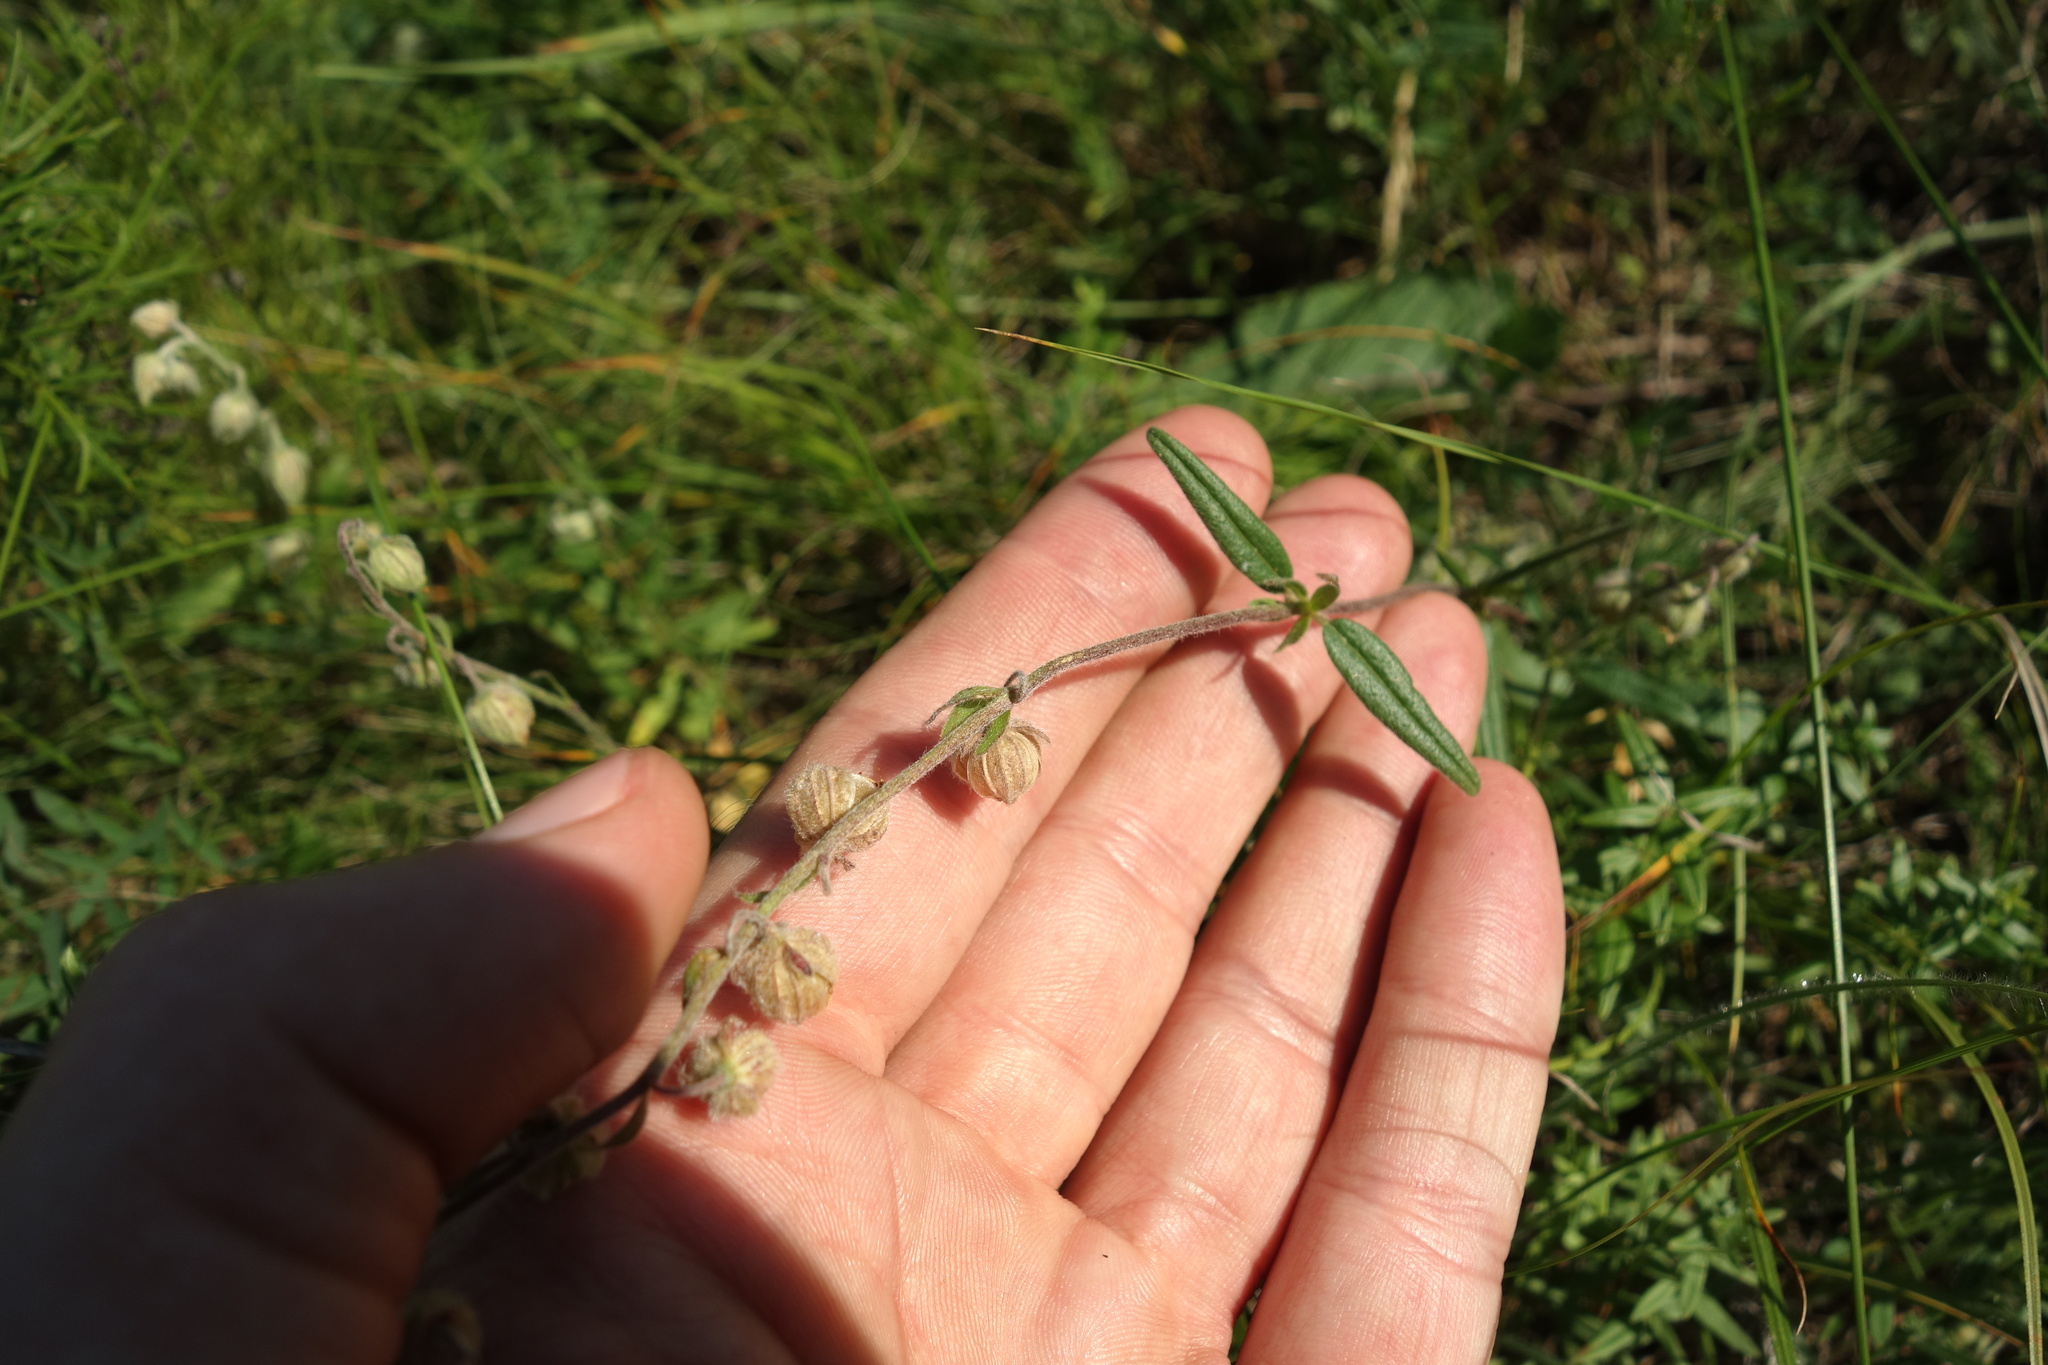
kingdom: Plantae
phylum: Tracheophyta
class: Magnoliopsida
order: Malvales
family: Cistaceae
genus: Helianthemum
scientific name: Helianthemum nummularium
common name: Common rock-rose
